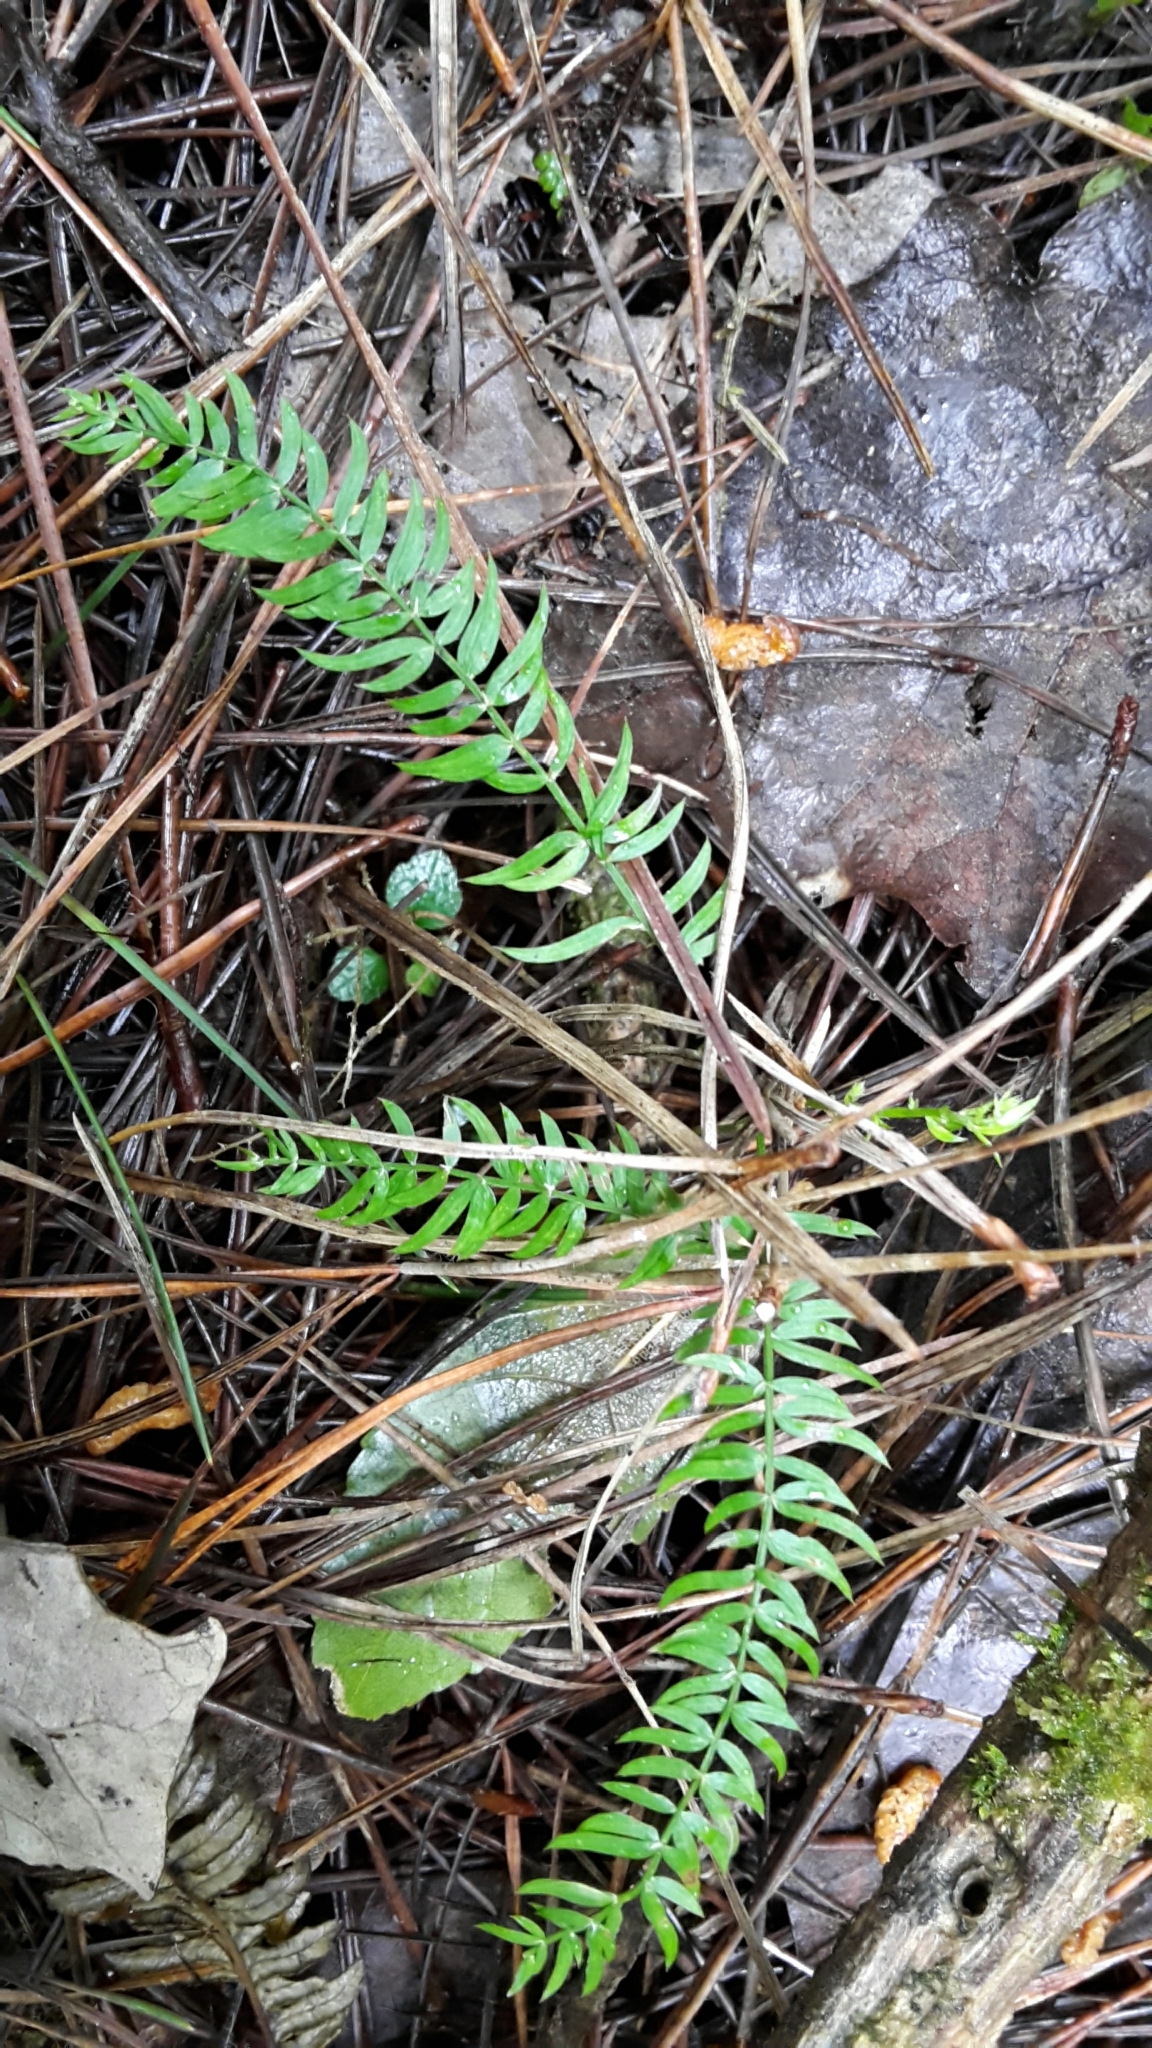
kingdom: Plantae
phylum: Tracheophyta
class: Liliopsida
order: Asparagales
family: Asparagaceae
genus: Asparagus
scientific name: Asparagus scandens
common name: Asparagus-fern
